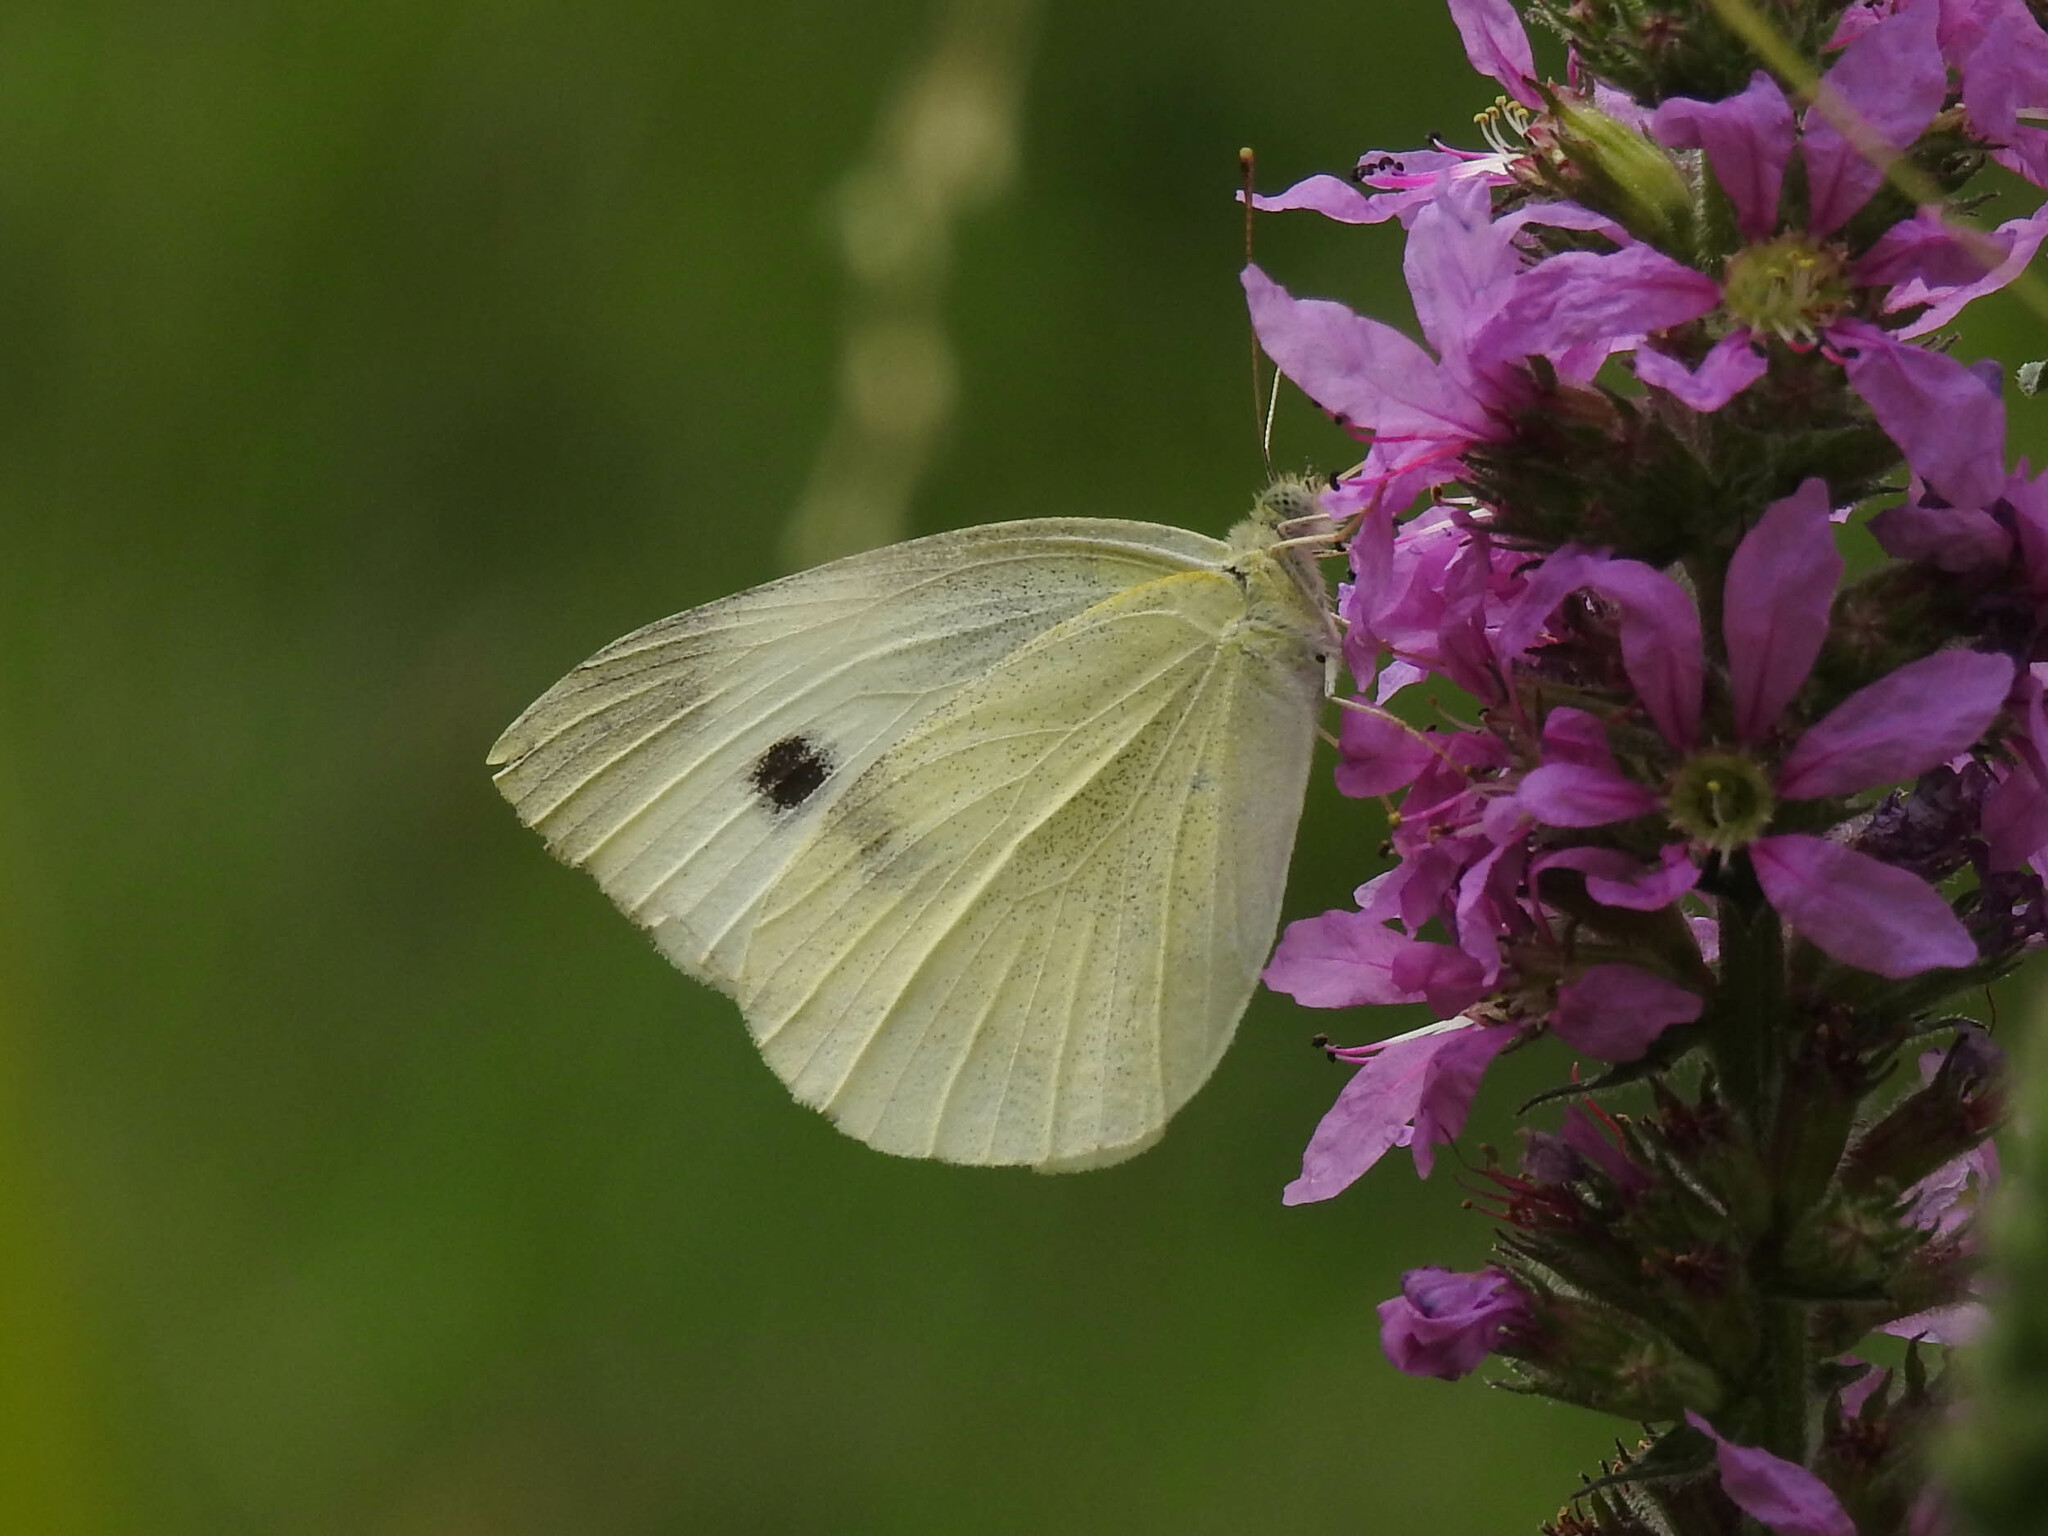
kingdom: Animalia
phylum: Arthropoda
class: Insecta
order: Lepidoptera
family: Pieridae
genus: Pieris
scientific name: Pieris rapae
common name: Small white
